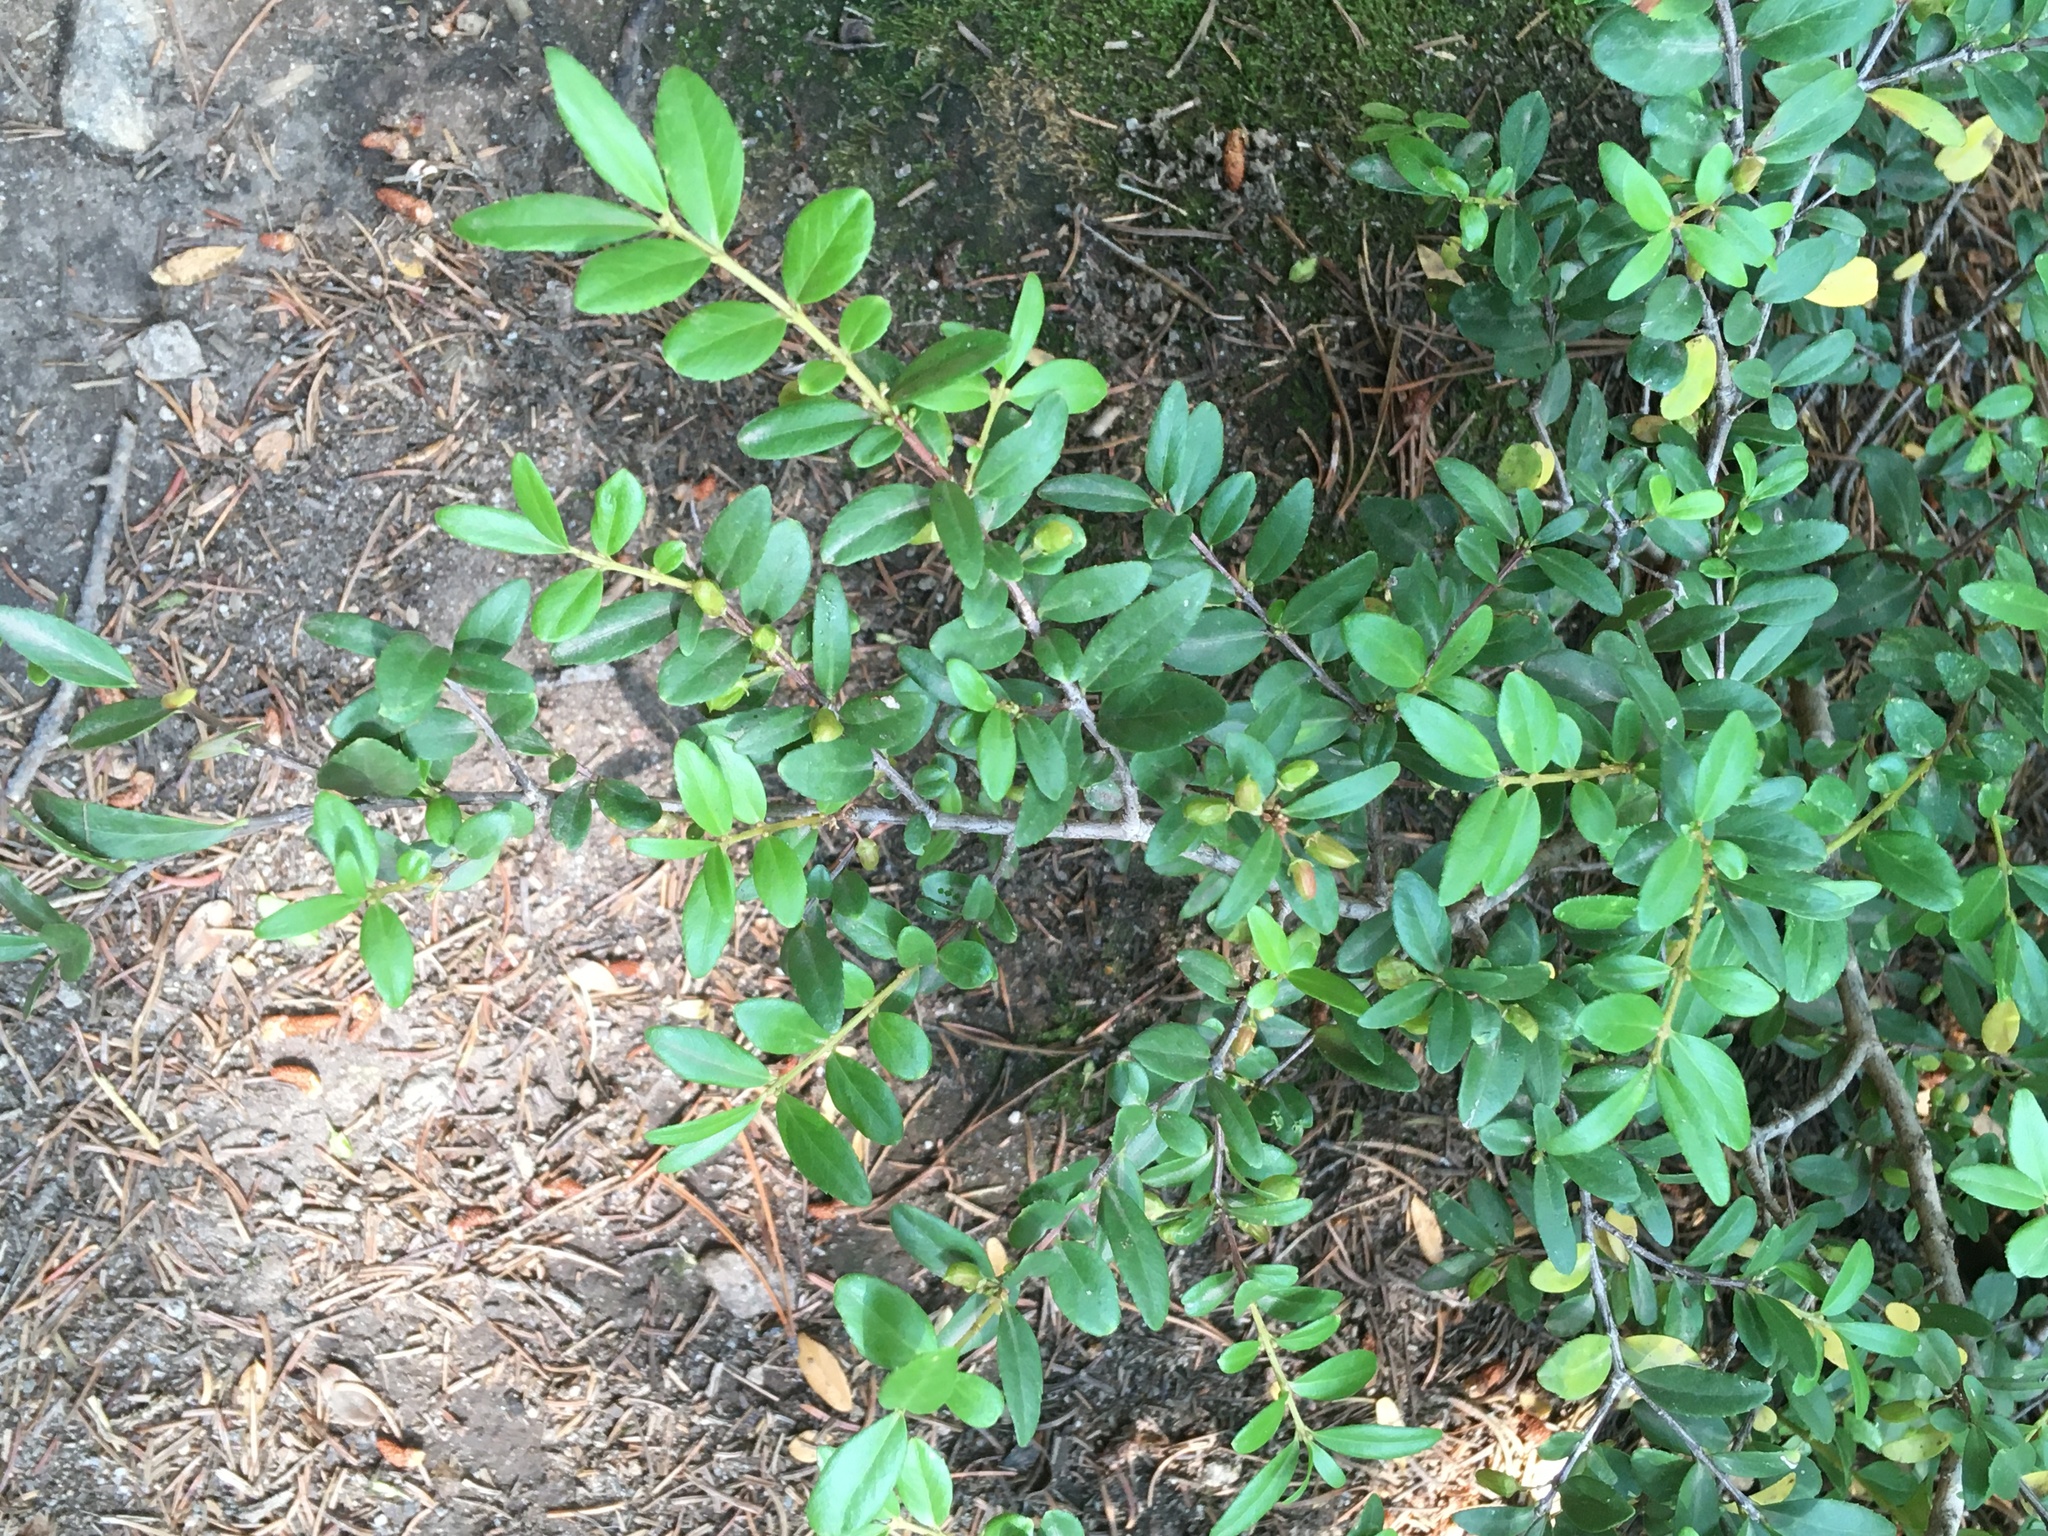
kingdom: Plantae
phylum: Tracheophyta
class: Magnoliopsida
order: Celastrales
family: Celastraceae
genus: Paxistima
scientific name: Paxistima myrsinites
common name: Mountain-lover
